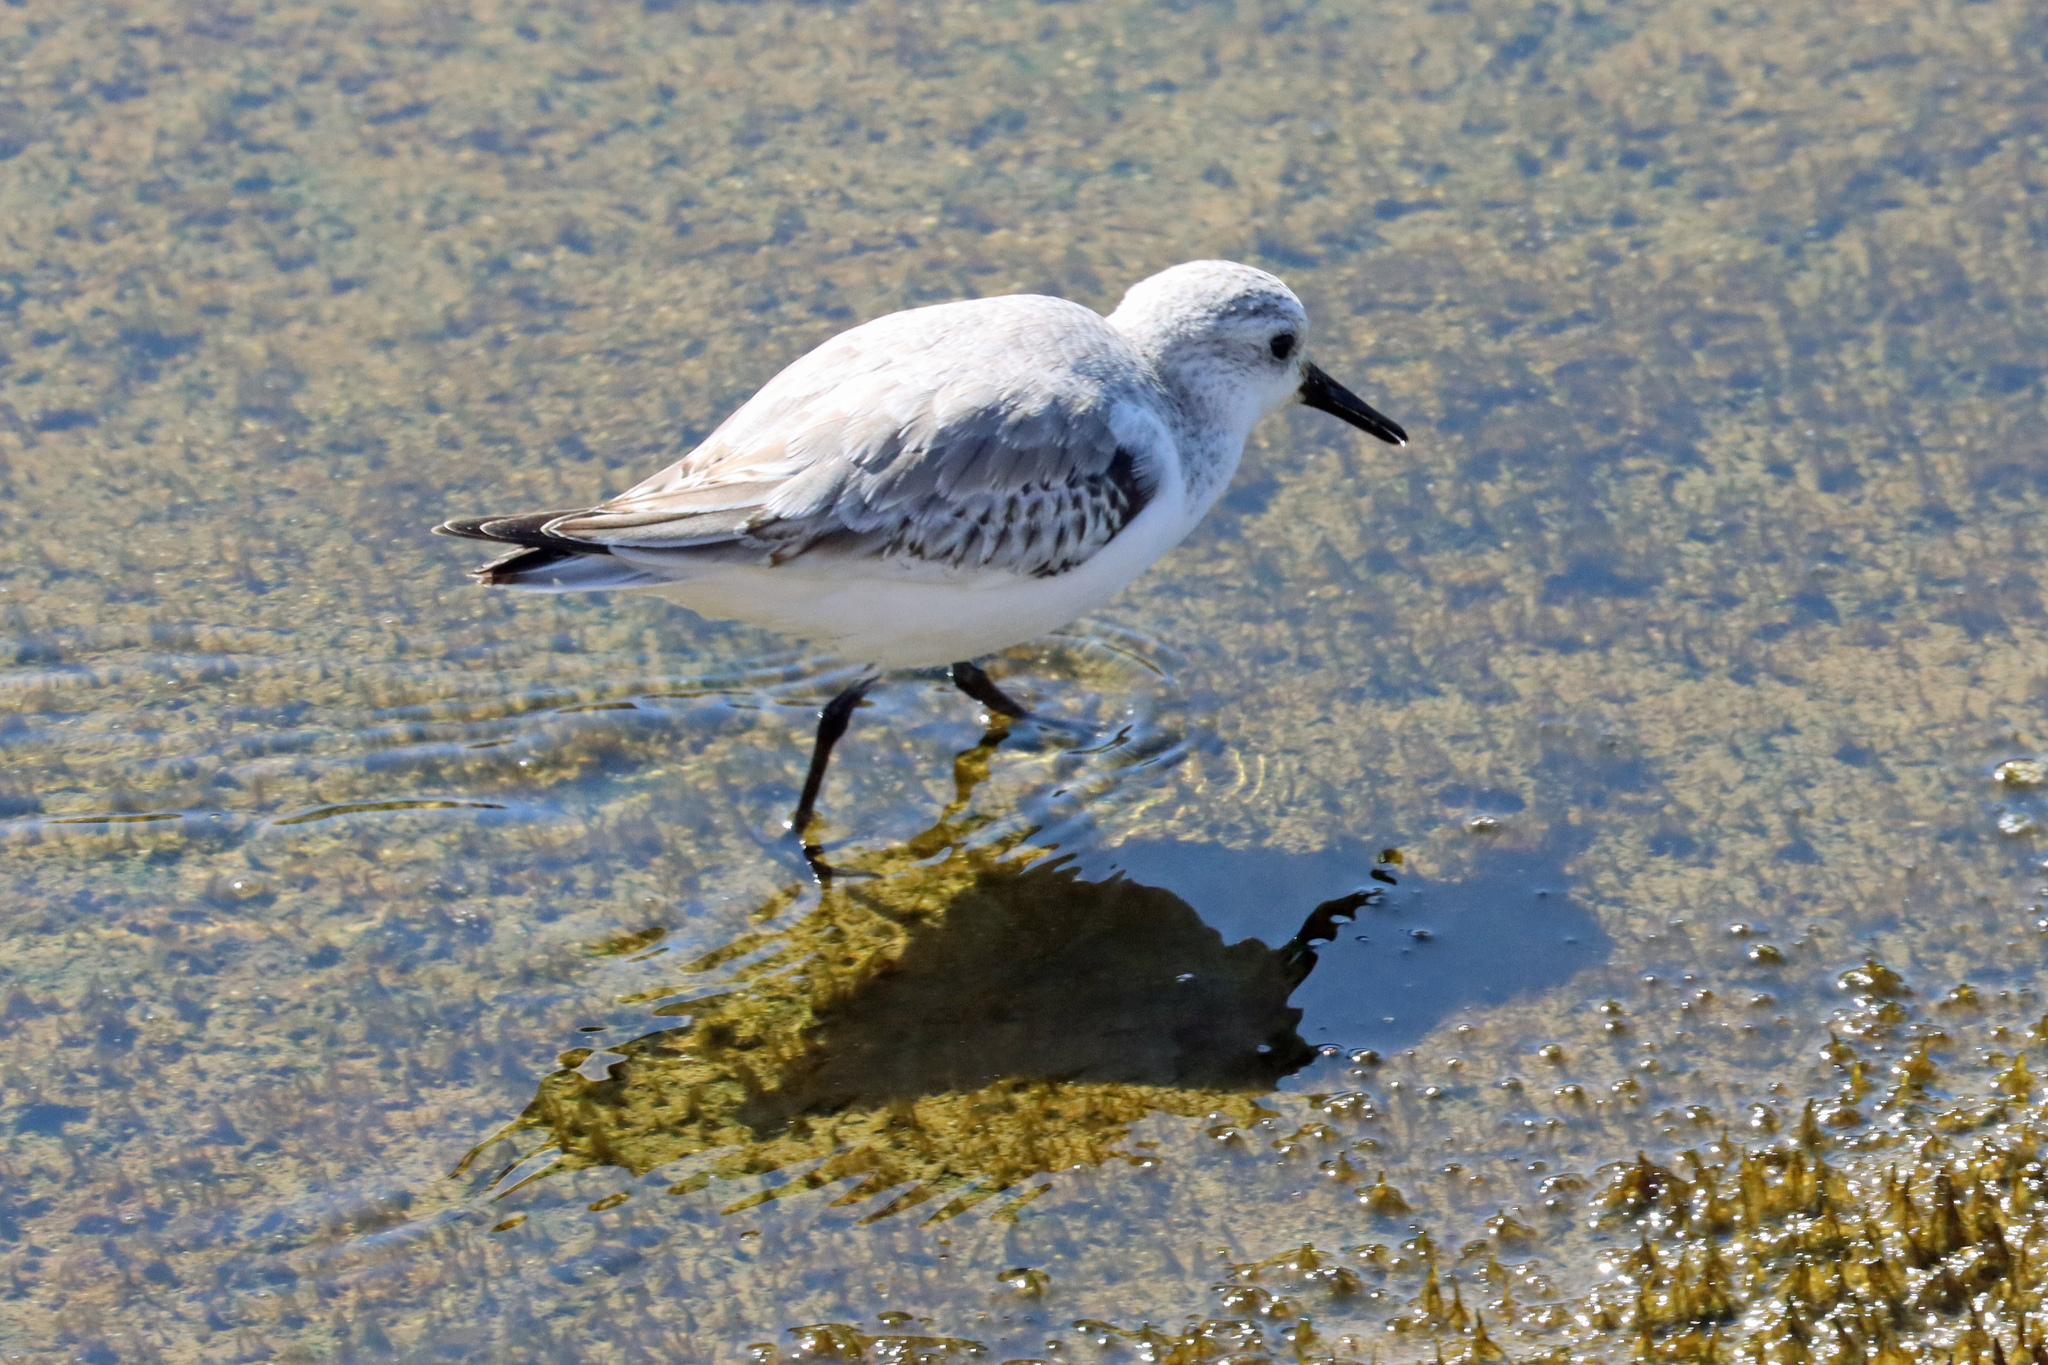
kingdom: Animalia
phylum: Chordata
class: Aves
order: Charadriiformes
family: Scolopacidae
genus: Calidris
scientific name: Calidris alba
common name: Sanderling
